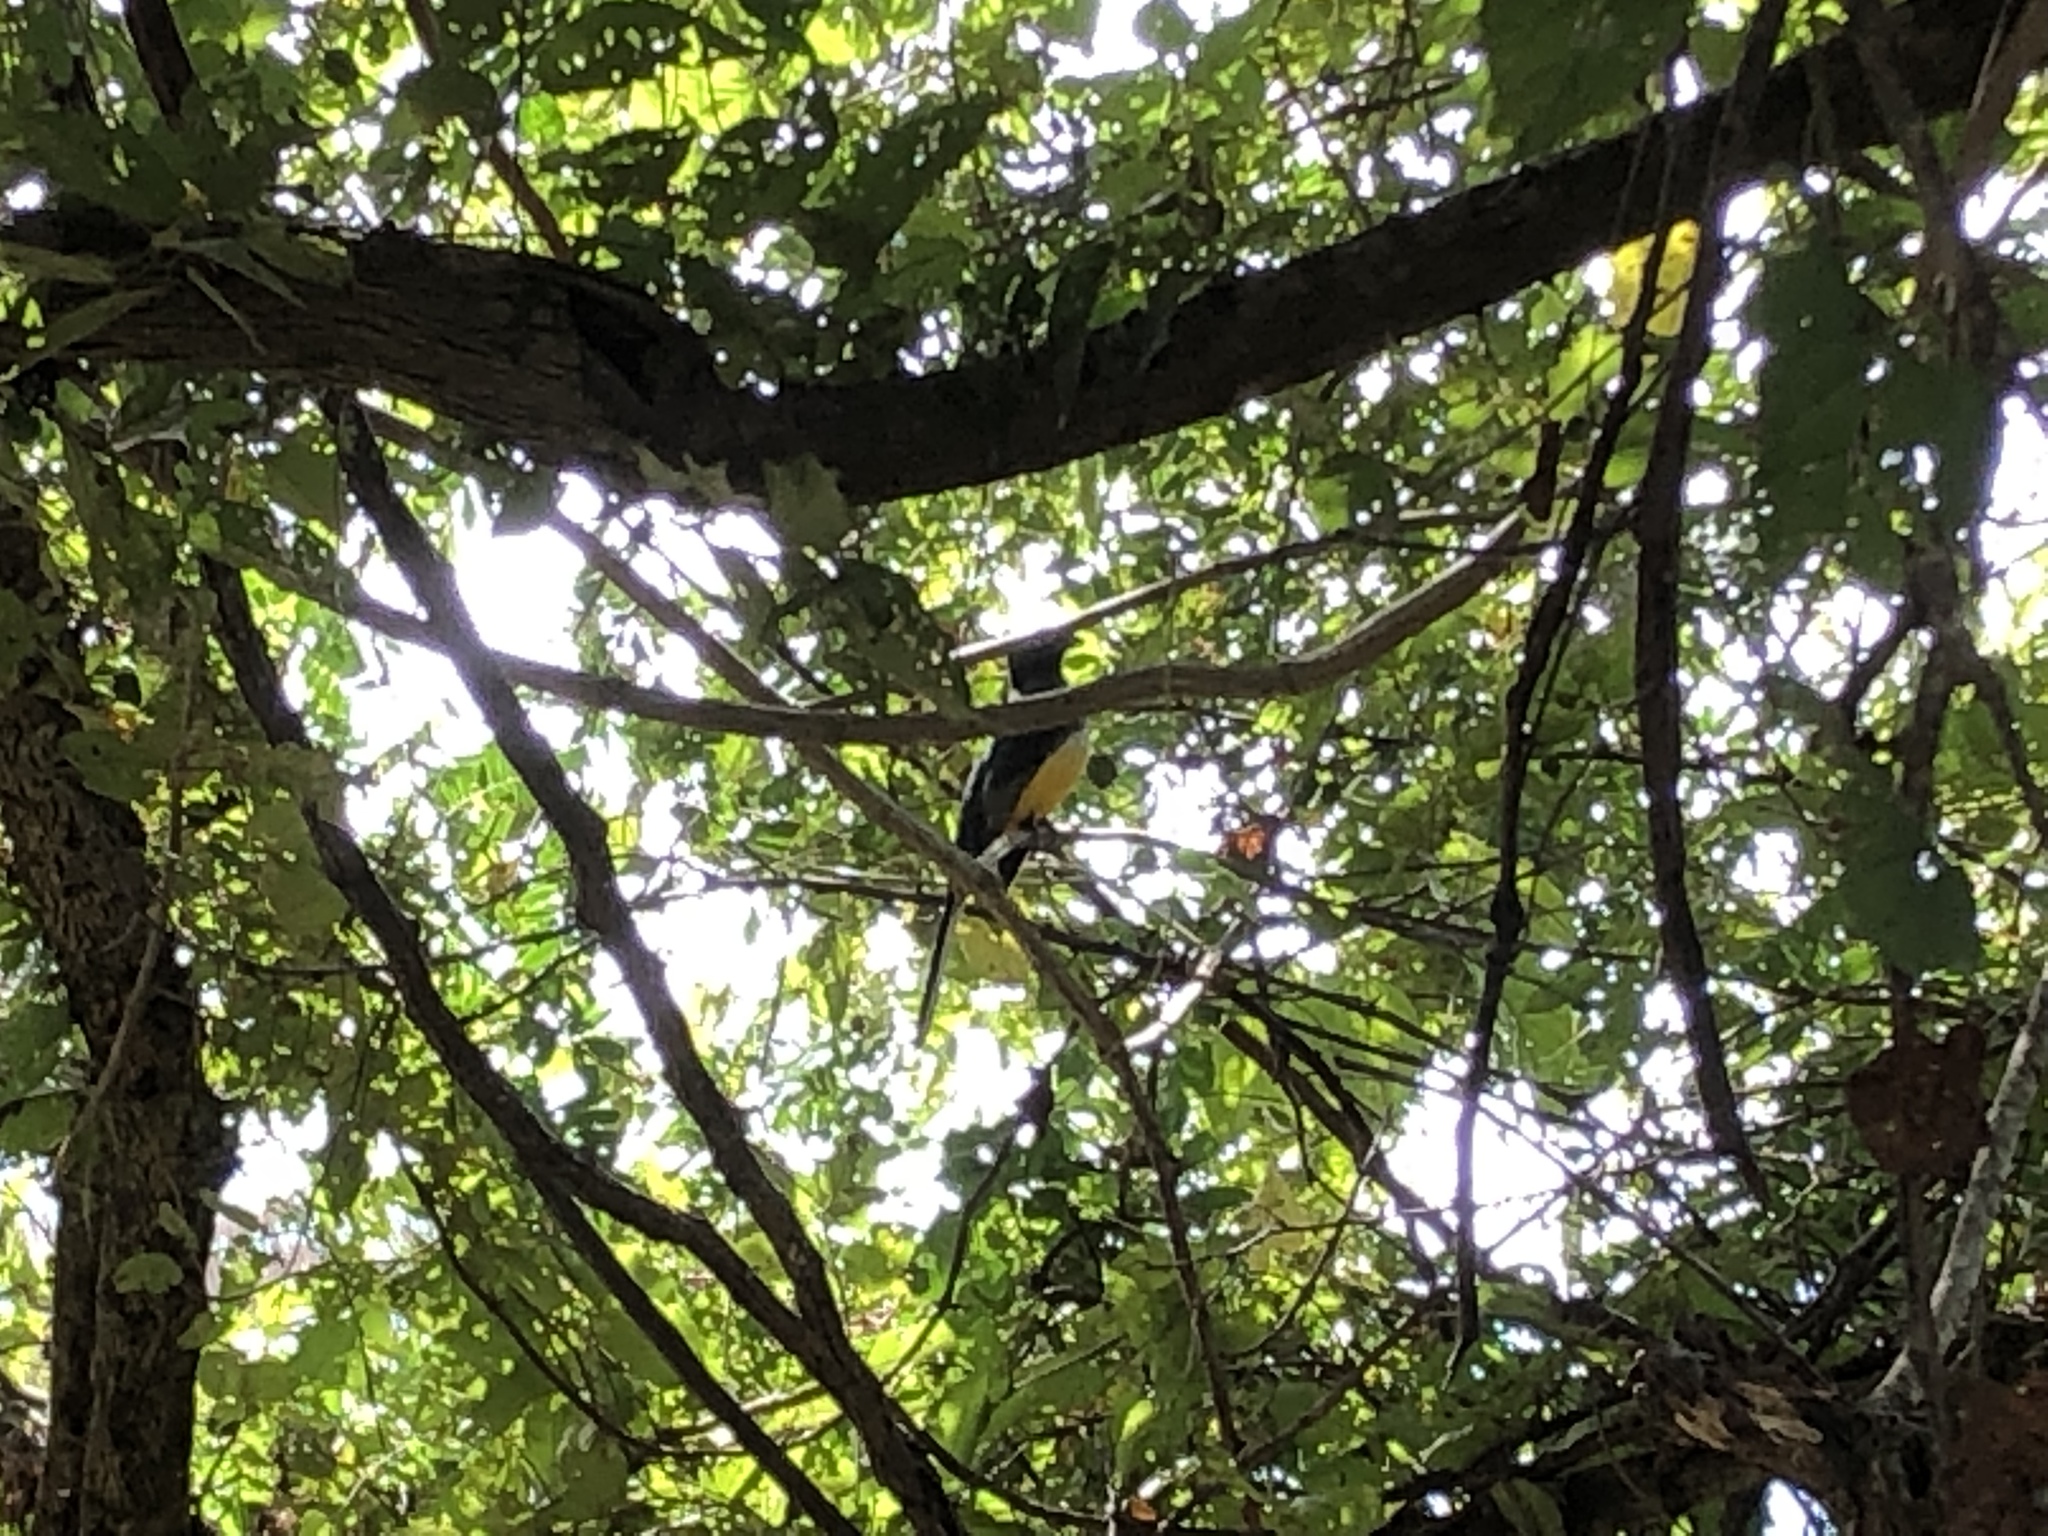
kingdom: Animalia
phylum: Chordata
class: Aves
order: Trogoniformes
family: Trogonidae
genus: Trogon
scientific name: Trogon citreolus
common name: Citreoline trogon
